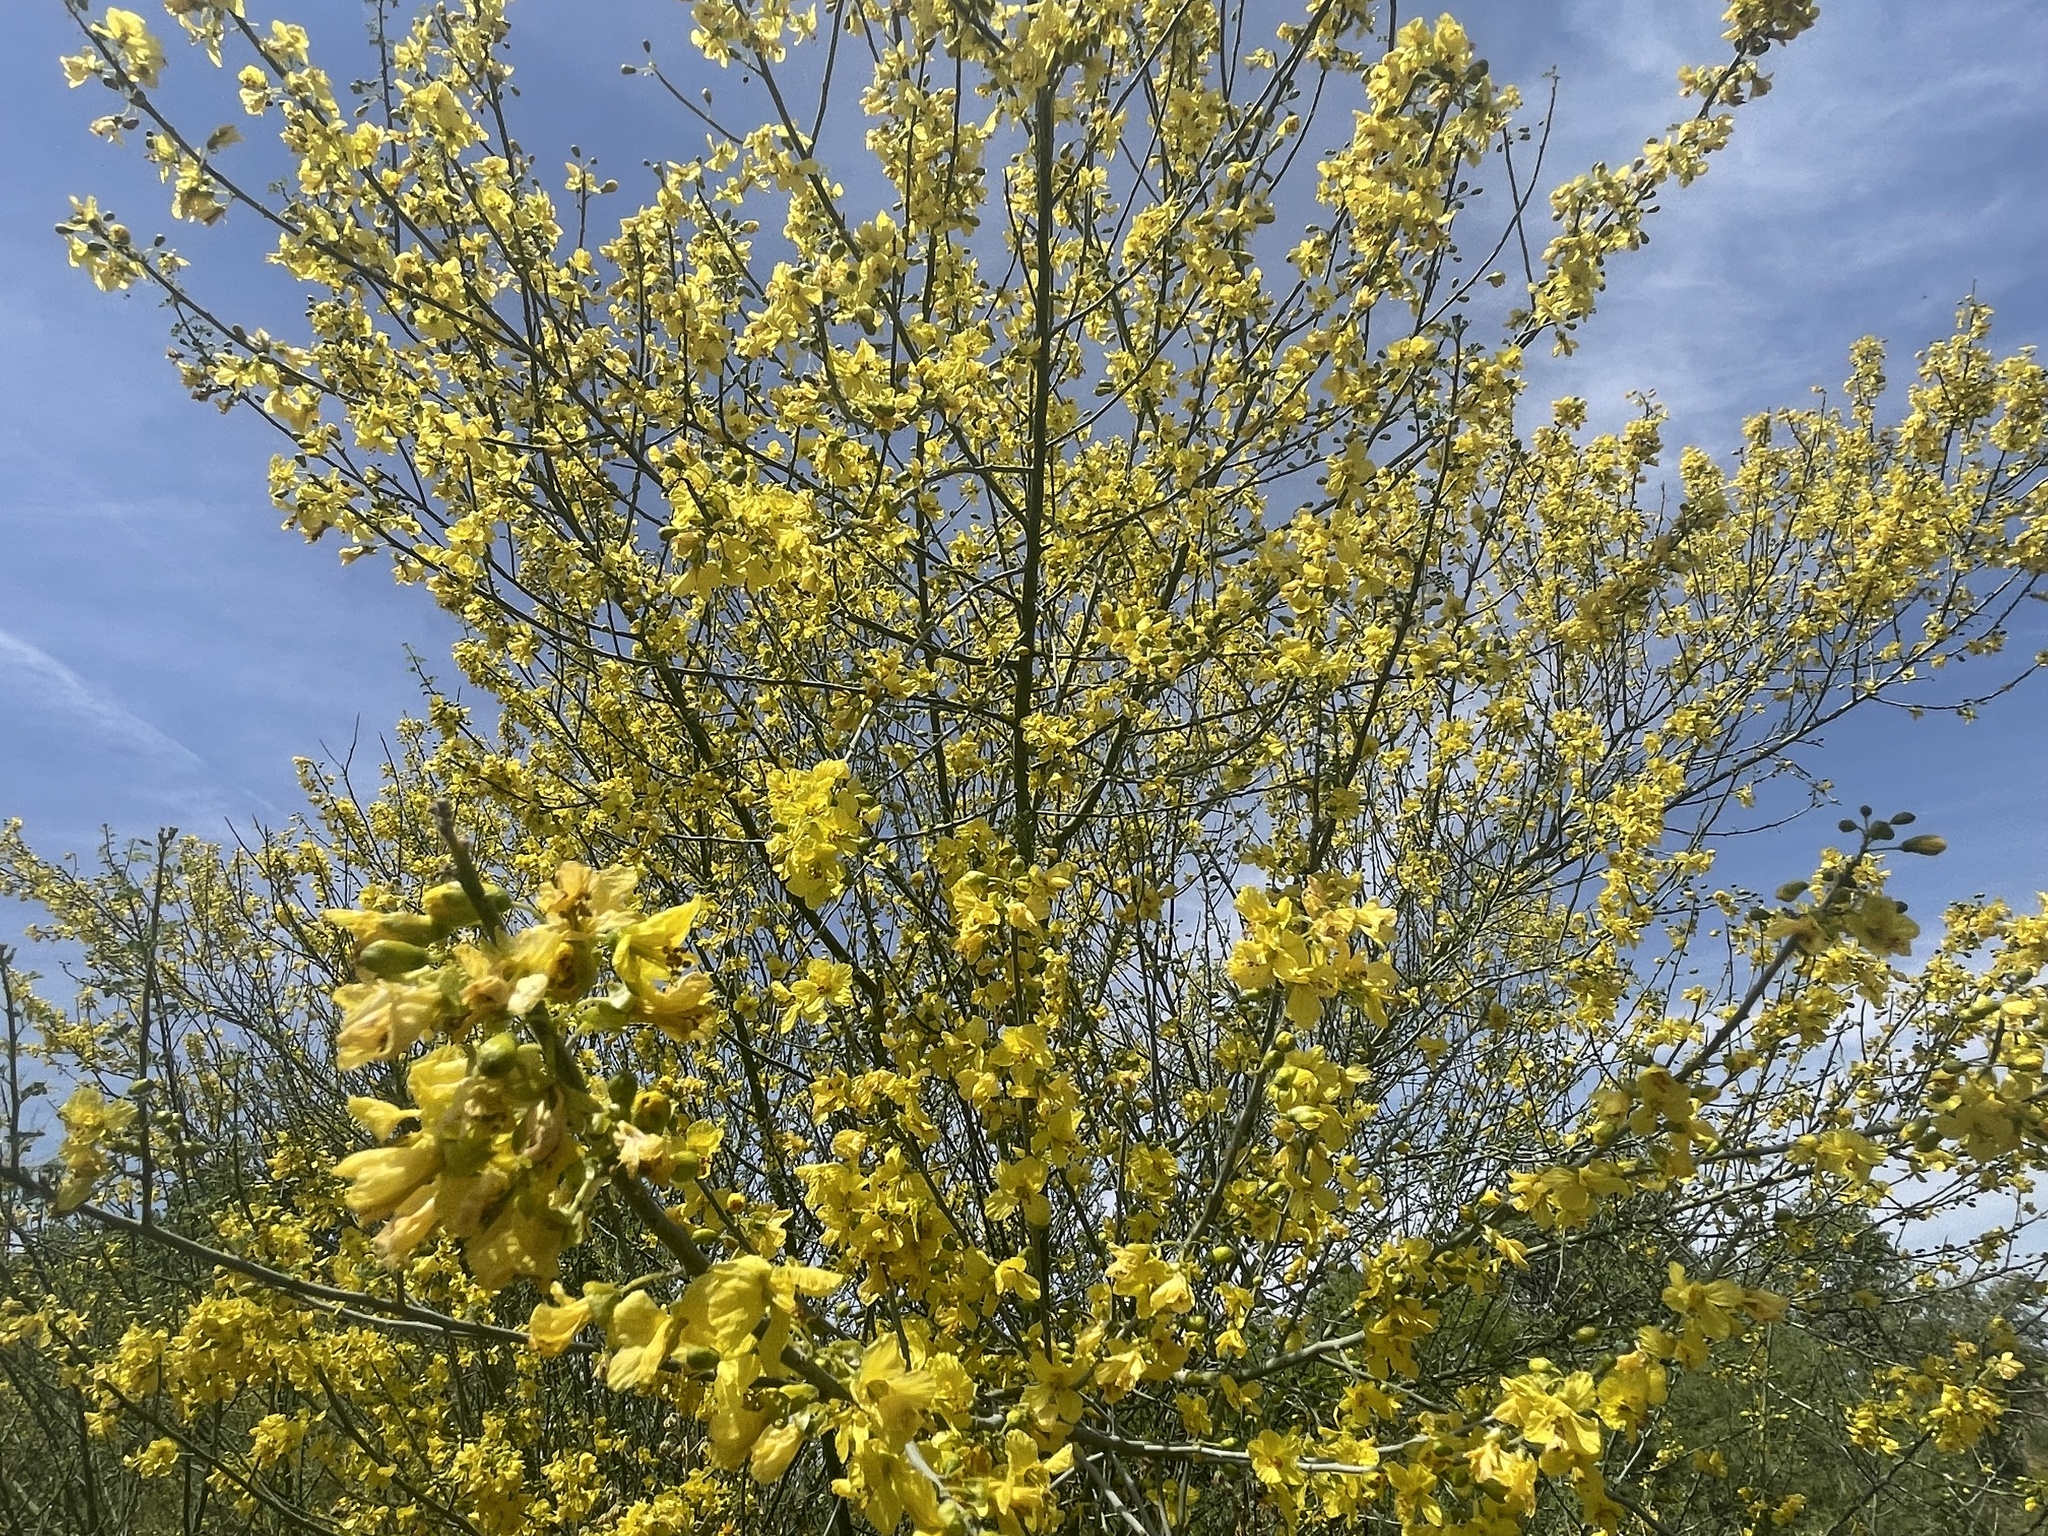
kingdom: Plantae
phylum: Tracheophyta
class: Magnoliopsida
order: Fabales
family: Fabaceae
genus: Parkinsonia
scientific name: Parkinsonia florida
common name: Blue paloverde
